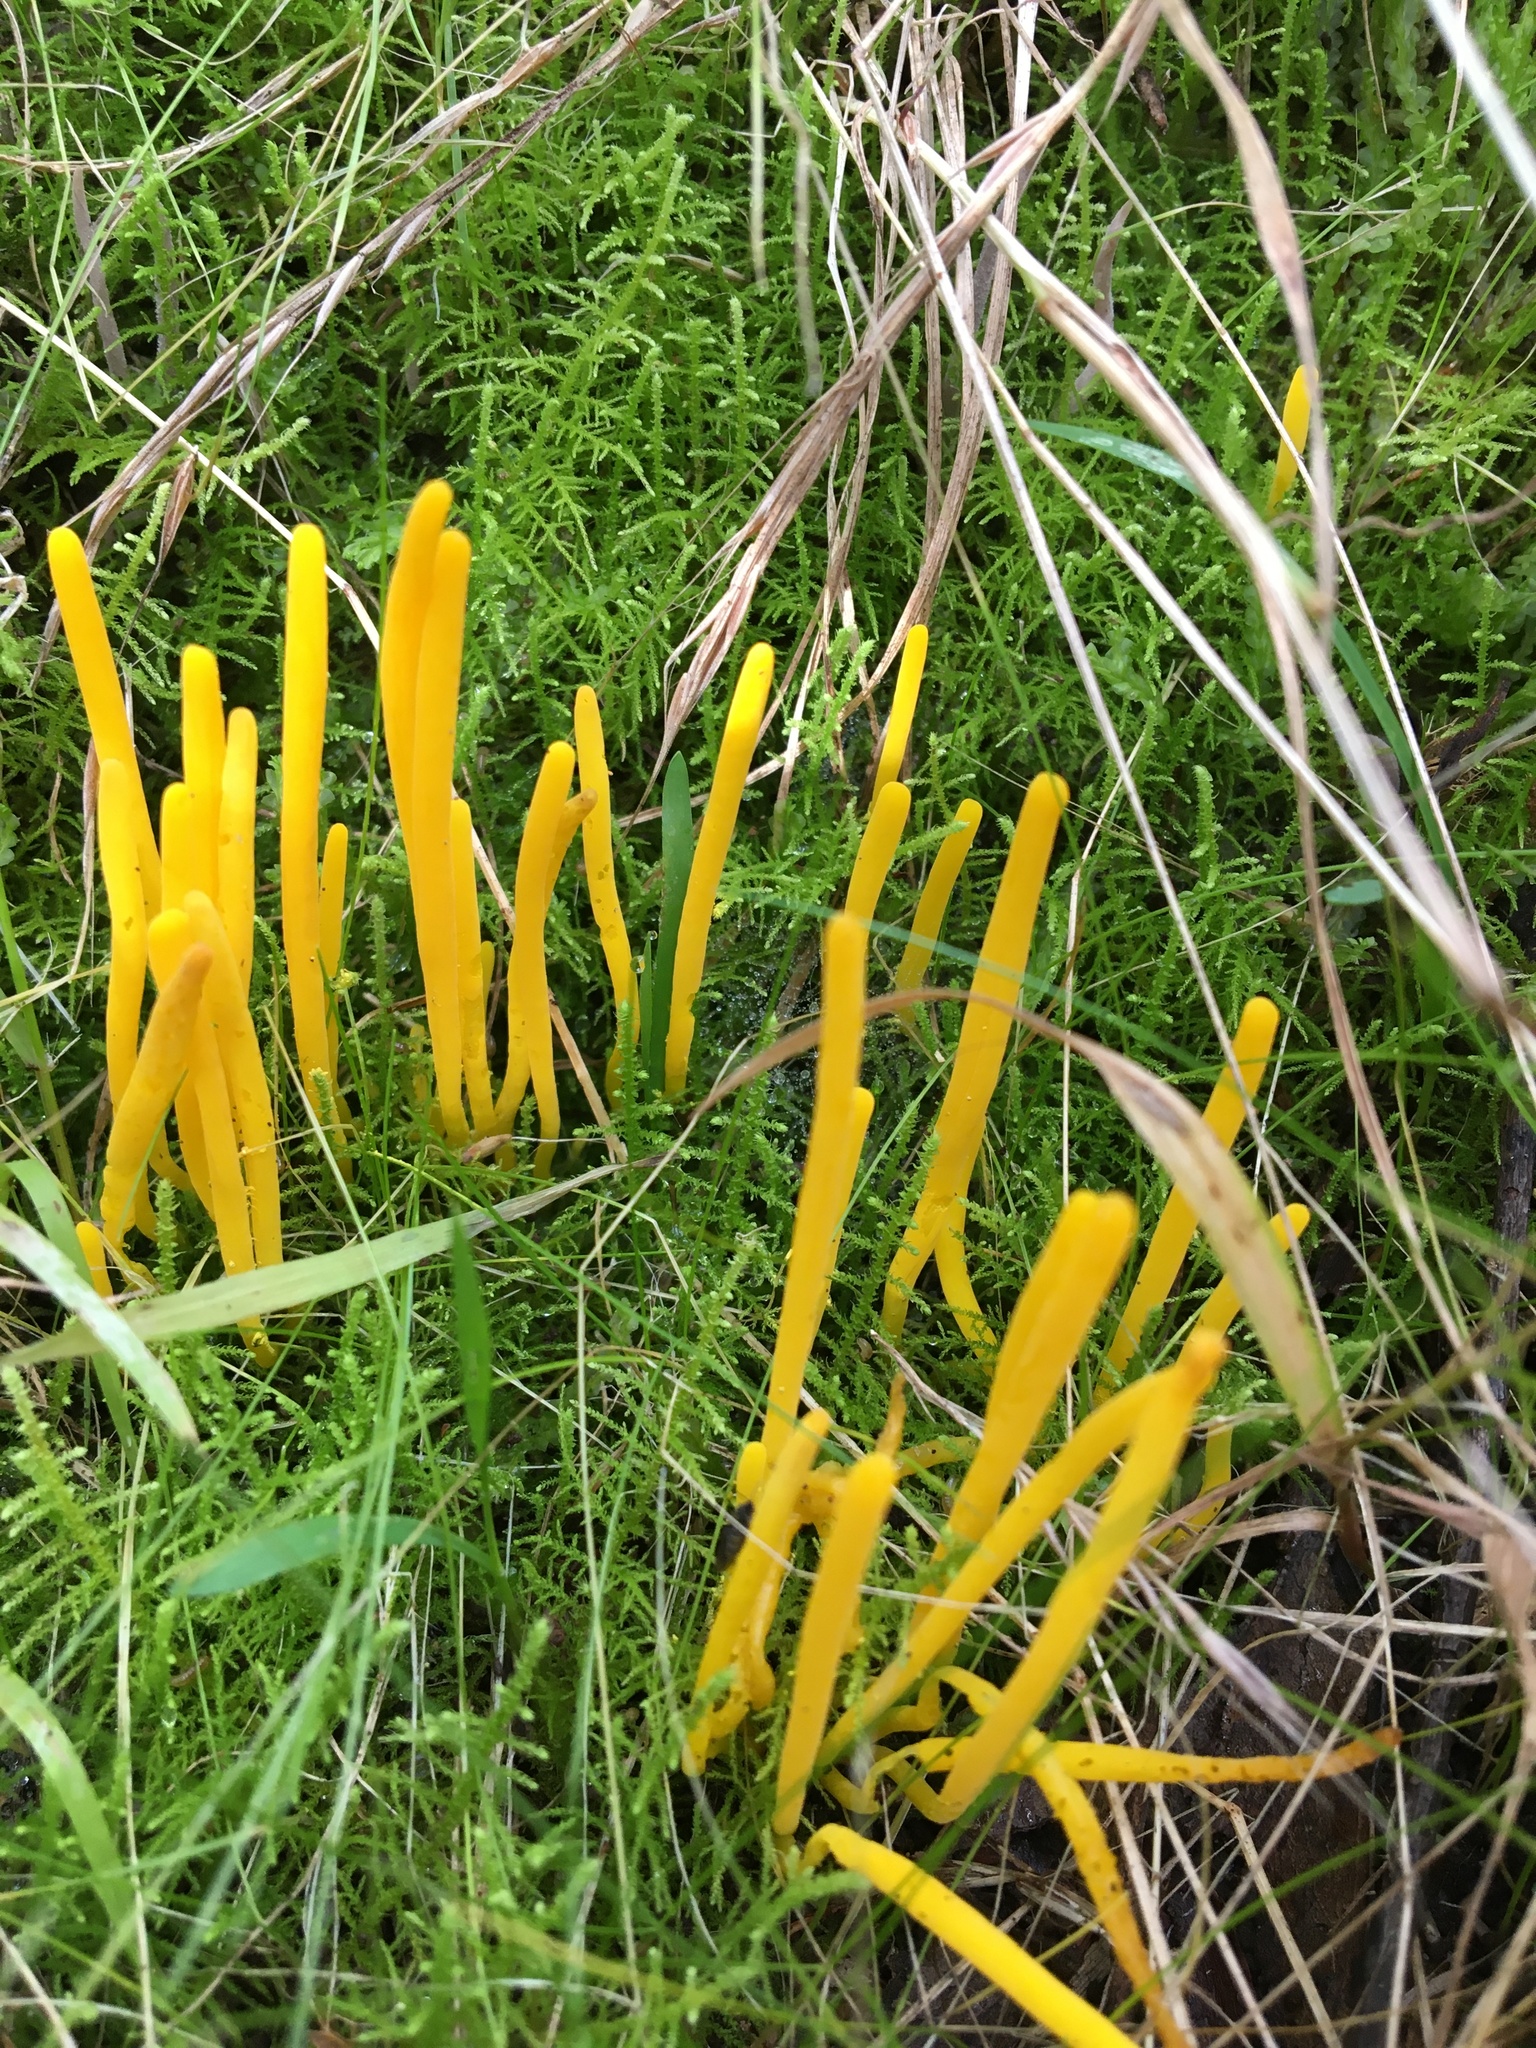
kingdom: Fungi
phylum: Basidiomycota
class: Agaricomycetes
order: Agaricales
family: Clavariaceae
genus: Clavulinopsis
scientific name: Clavulinopsis amoena
